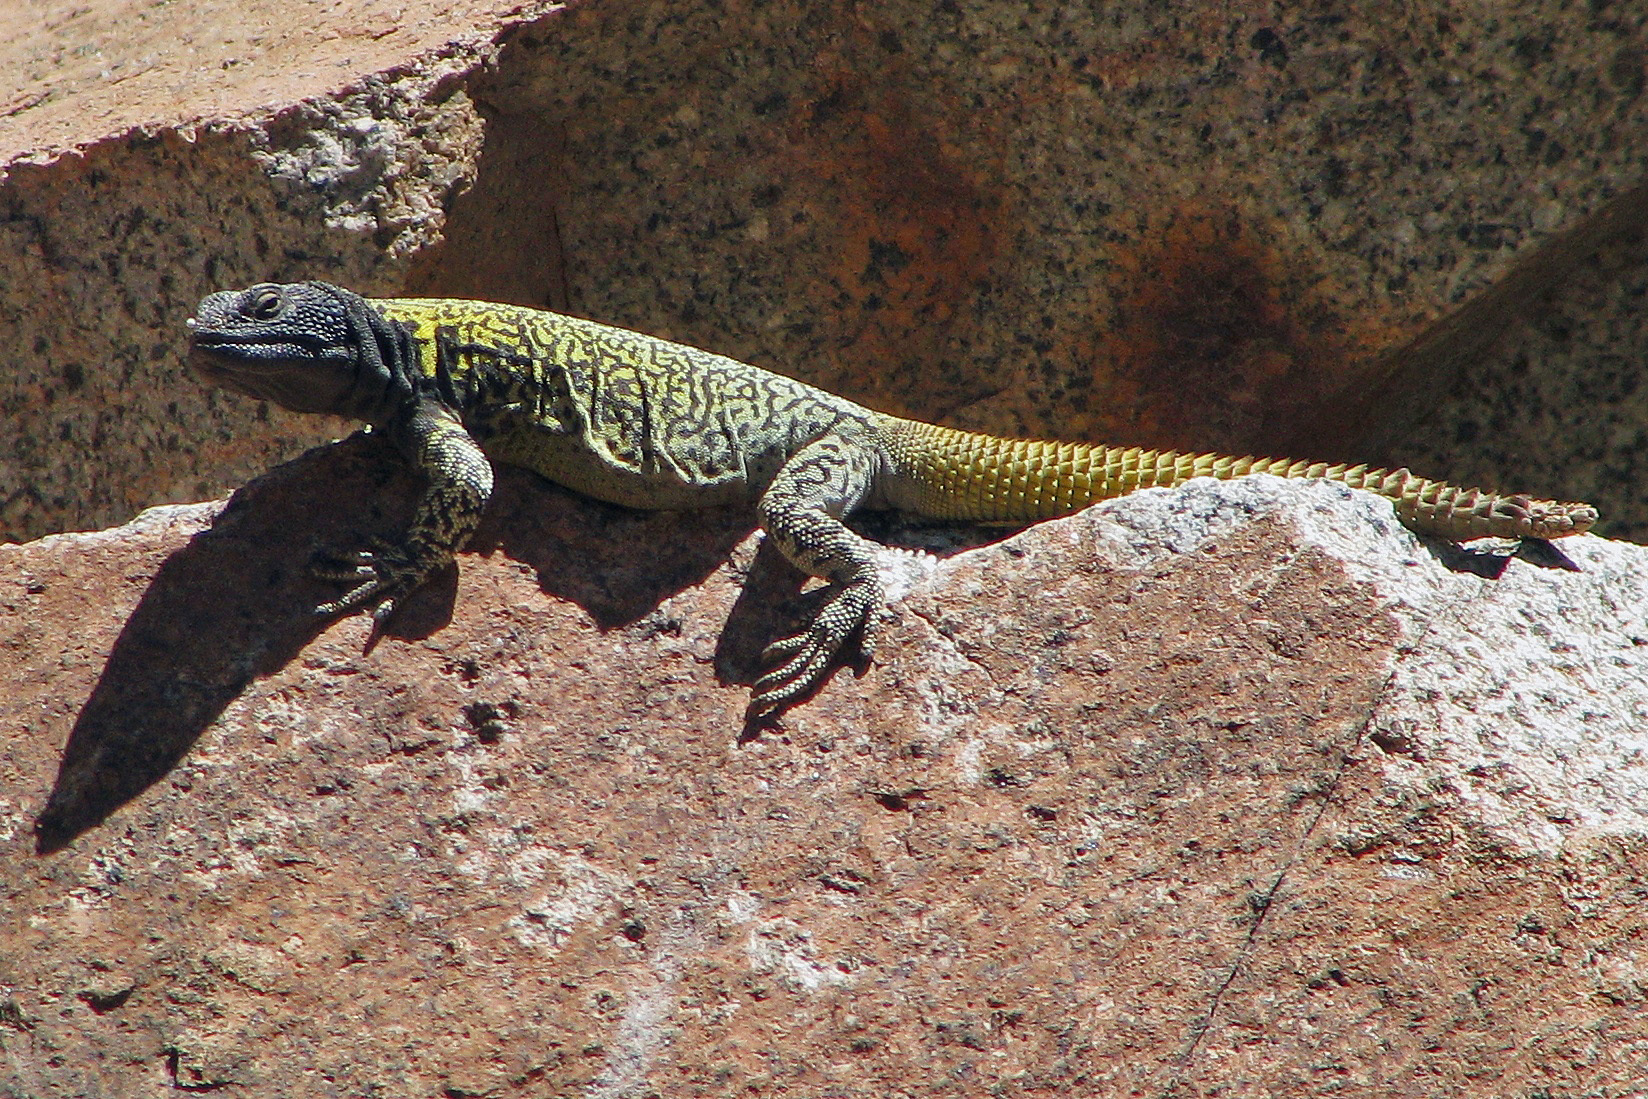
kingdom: Animalia
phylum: Chordata
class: Squamata
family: Liolaemidae
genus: Phymaturus
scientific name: Phymaturus palluma
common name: High mountain lizard
